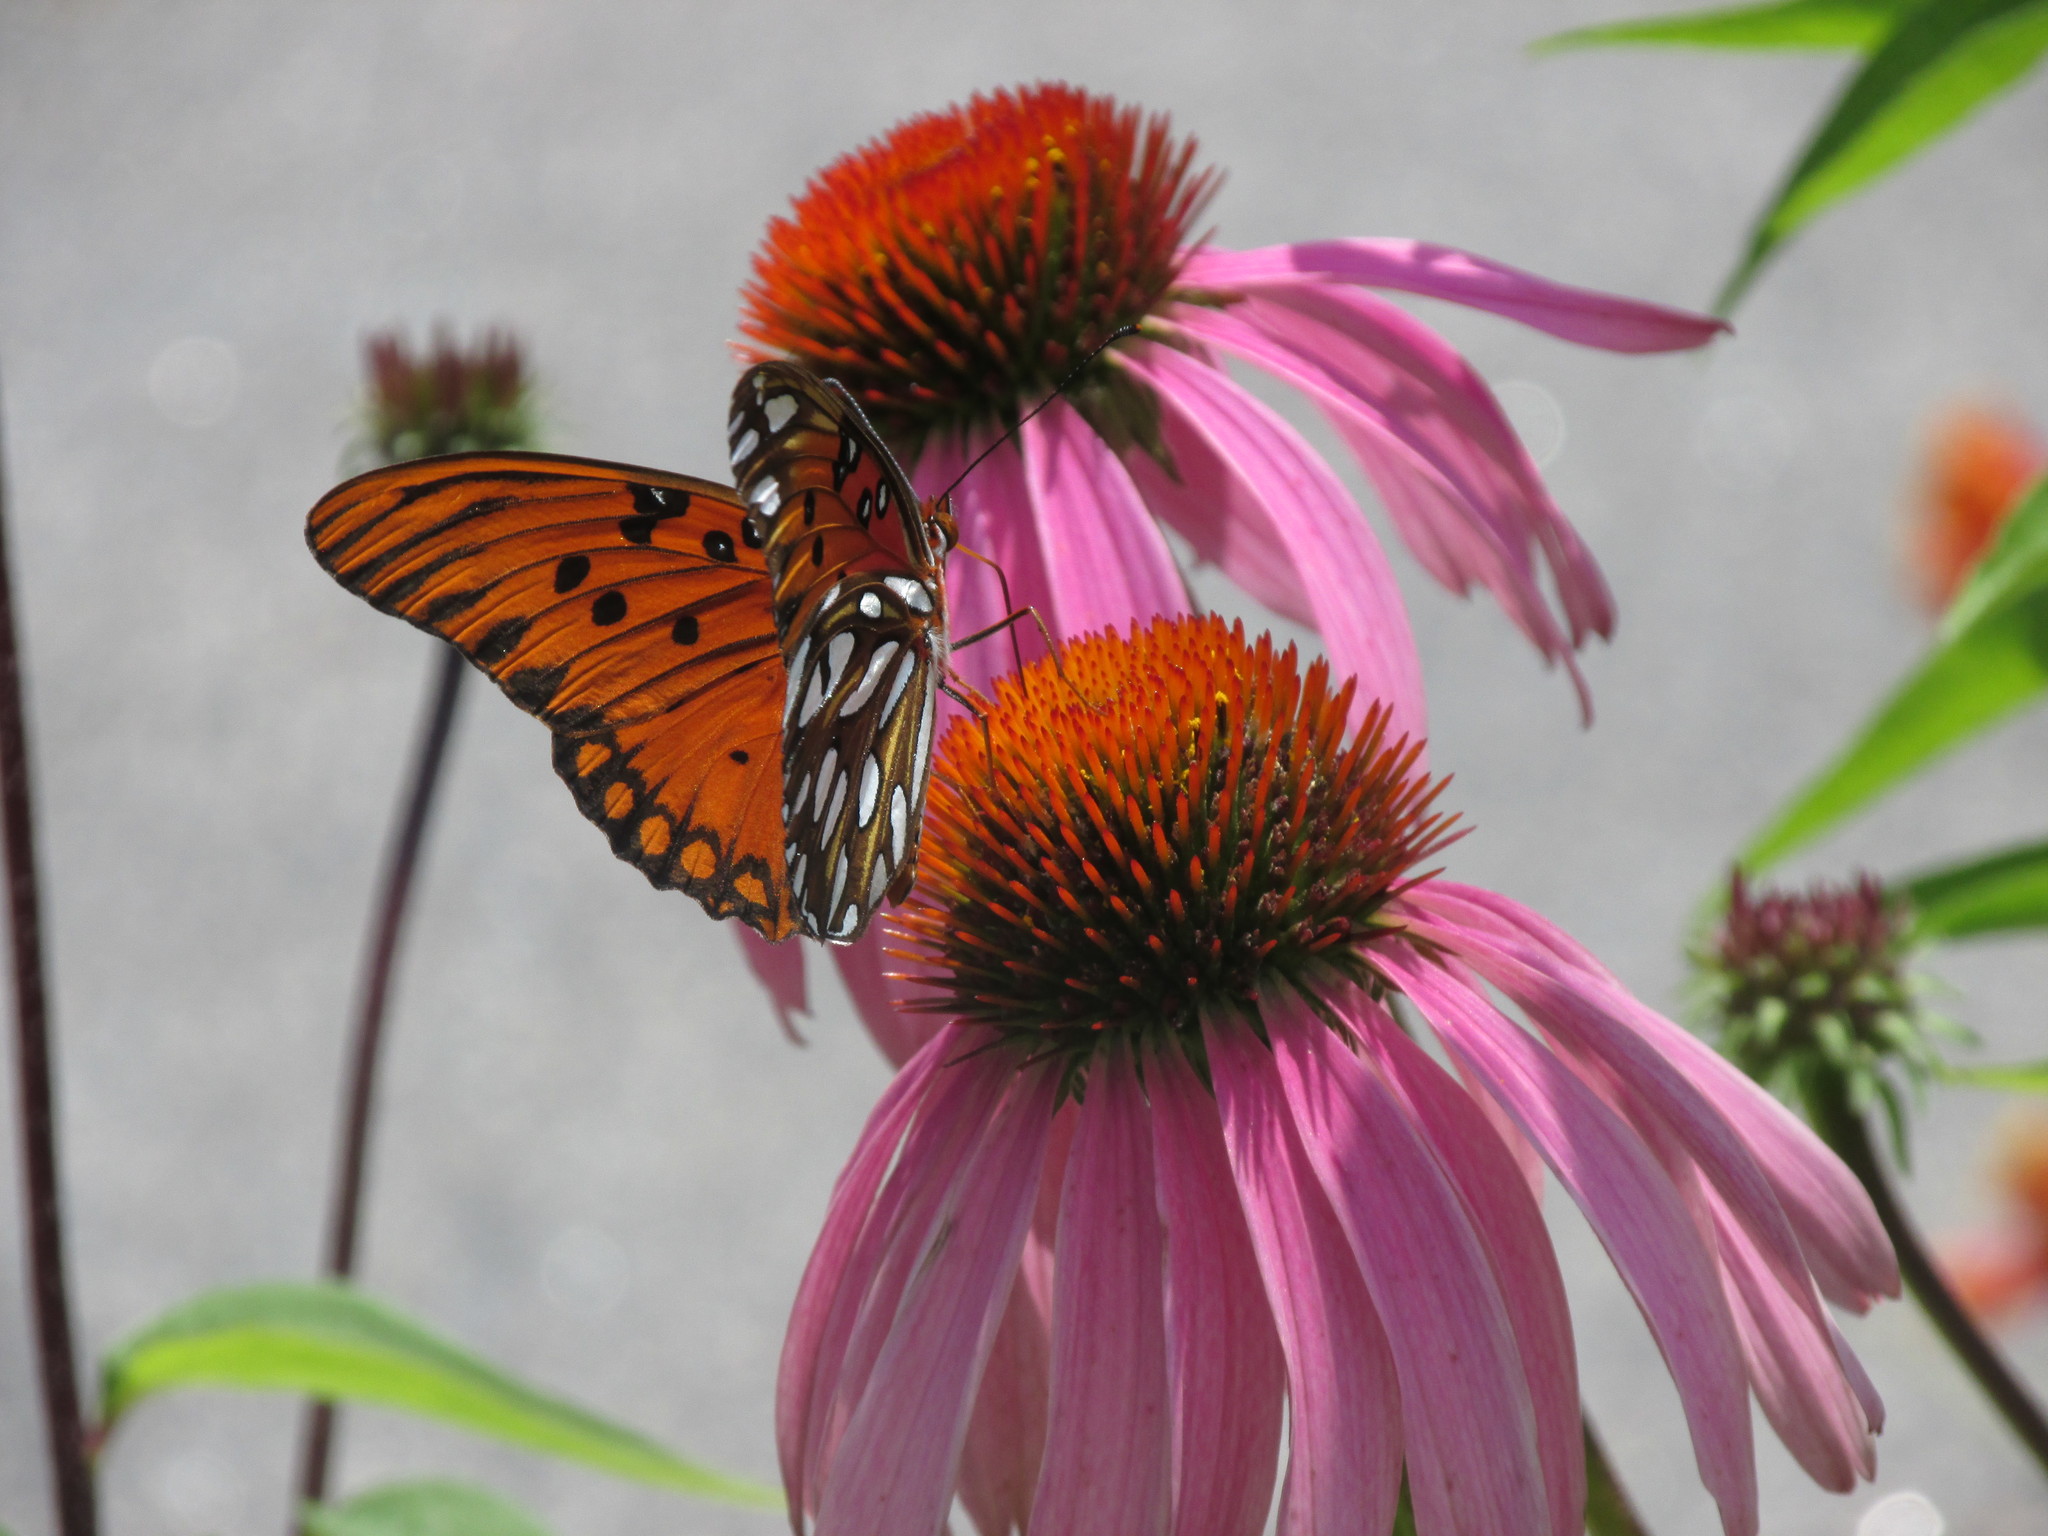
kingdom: Animalia
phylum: Arthropoda
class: Insecta
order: Lepidoptera
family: Nymphalidae
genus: Dione
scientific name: Dione vanillae
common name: Gulf fritillary
